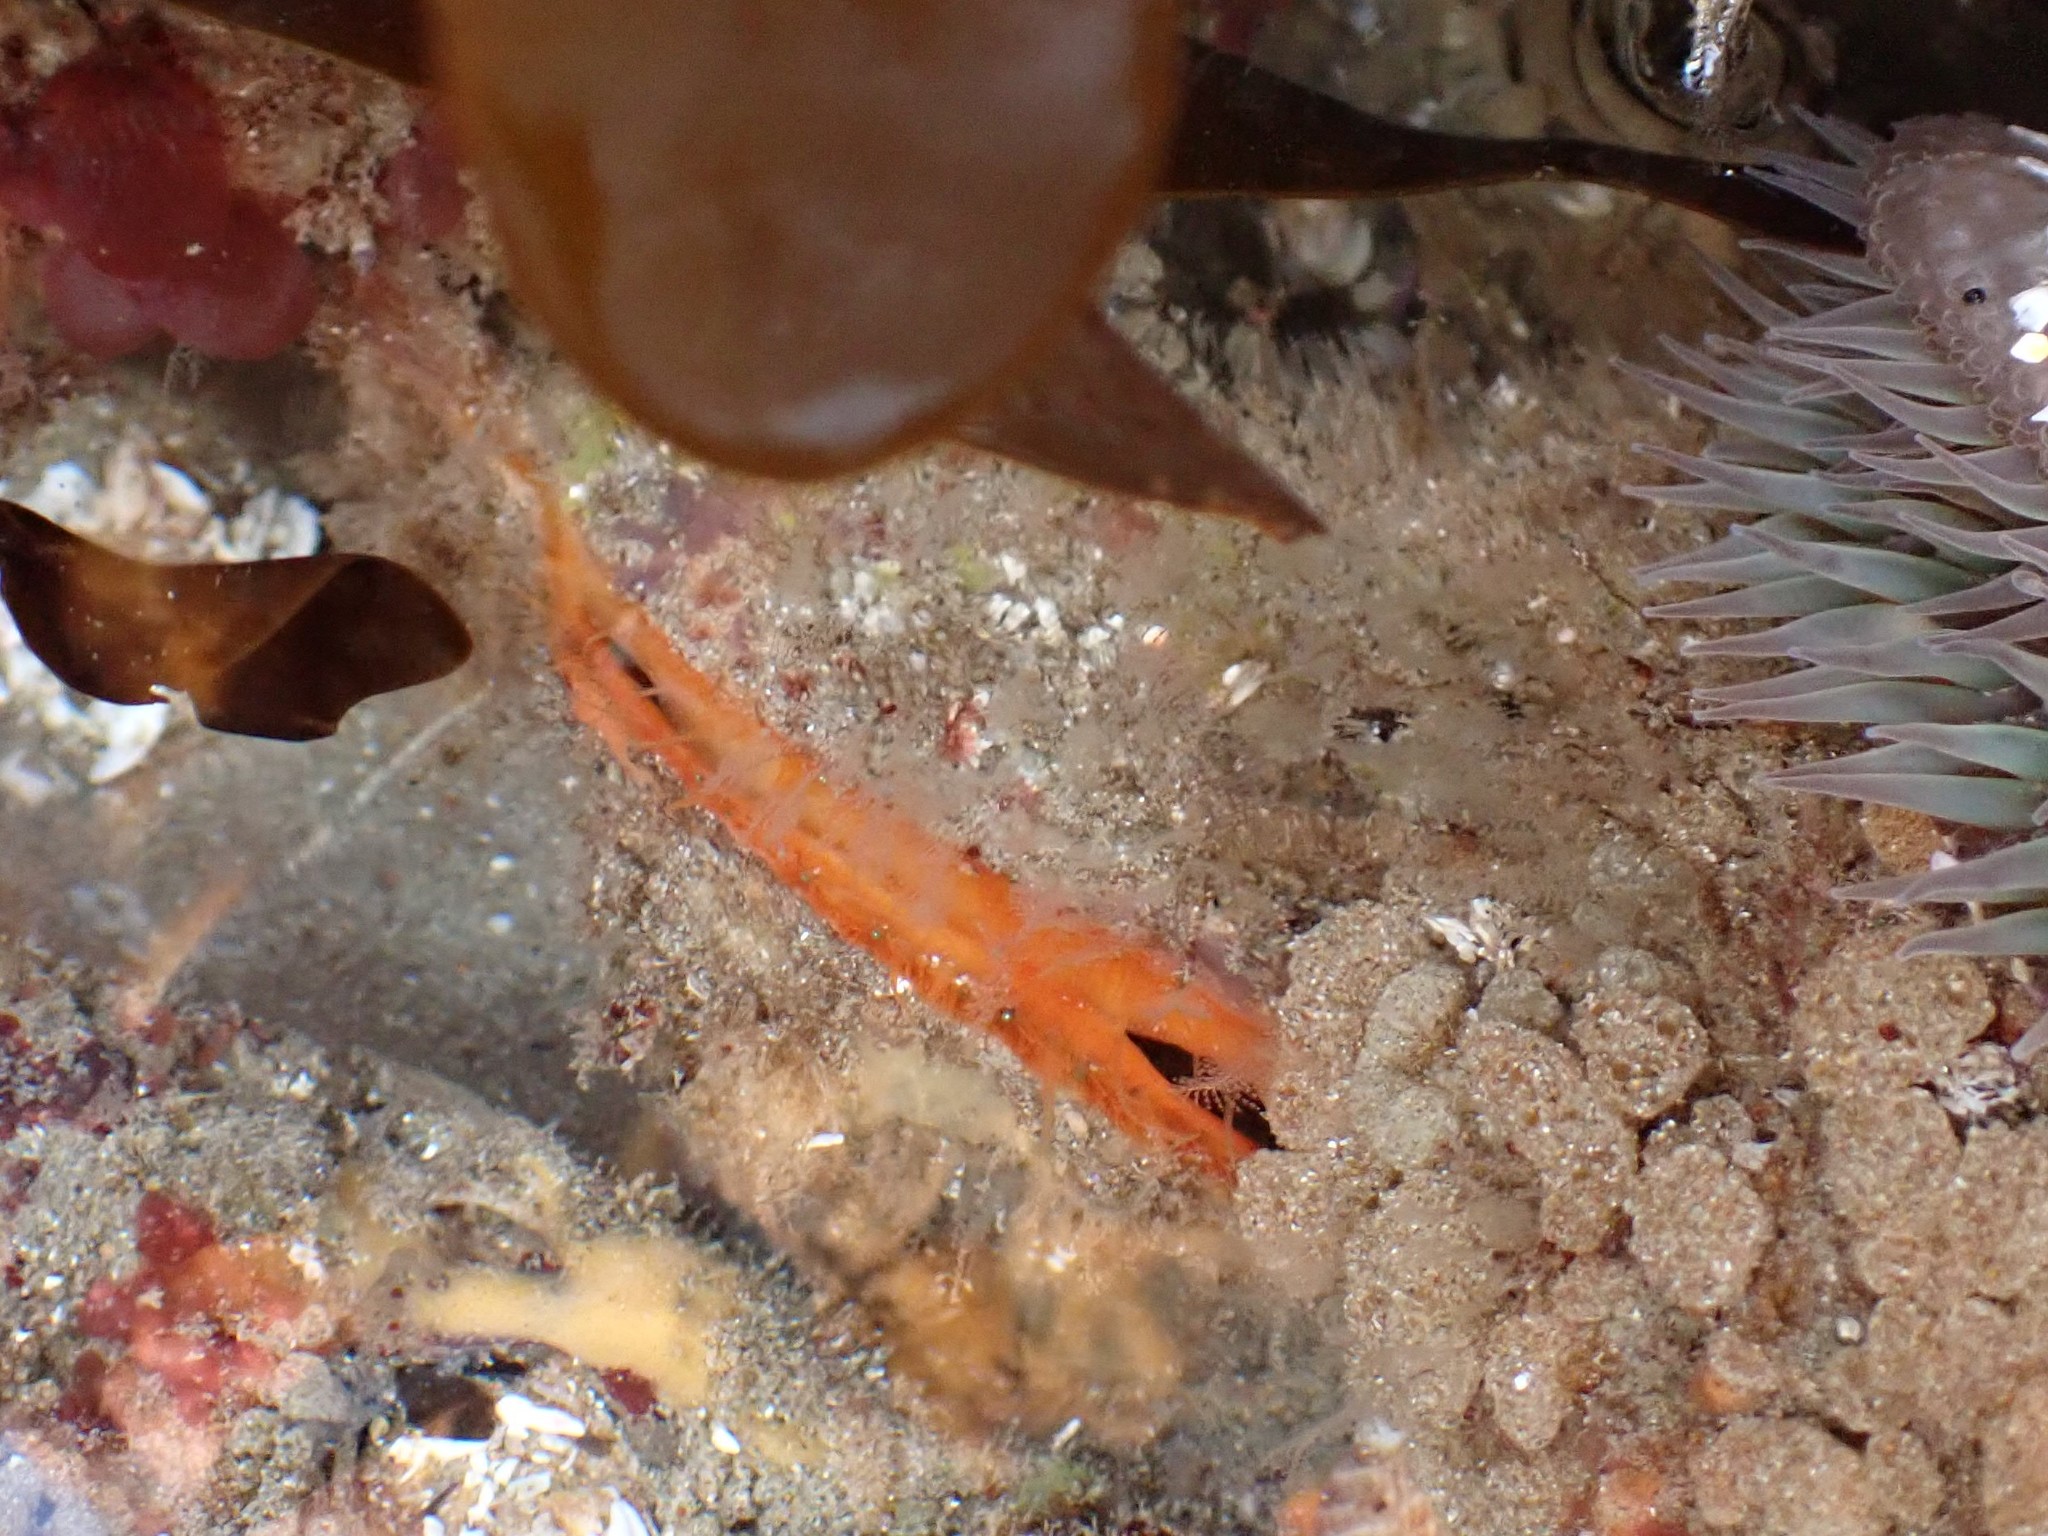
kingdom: Animalia
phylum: Mollusca
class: Bivalvia
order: Pectinida
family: Pectinidae
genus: Crassadoma
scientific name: Crassadoma gigantea
